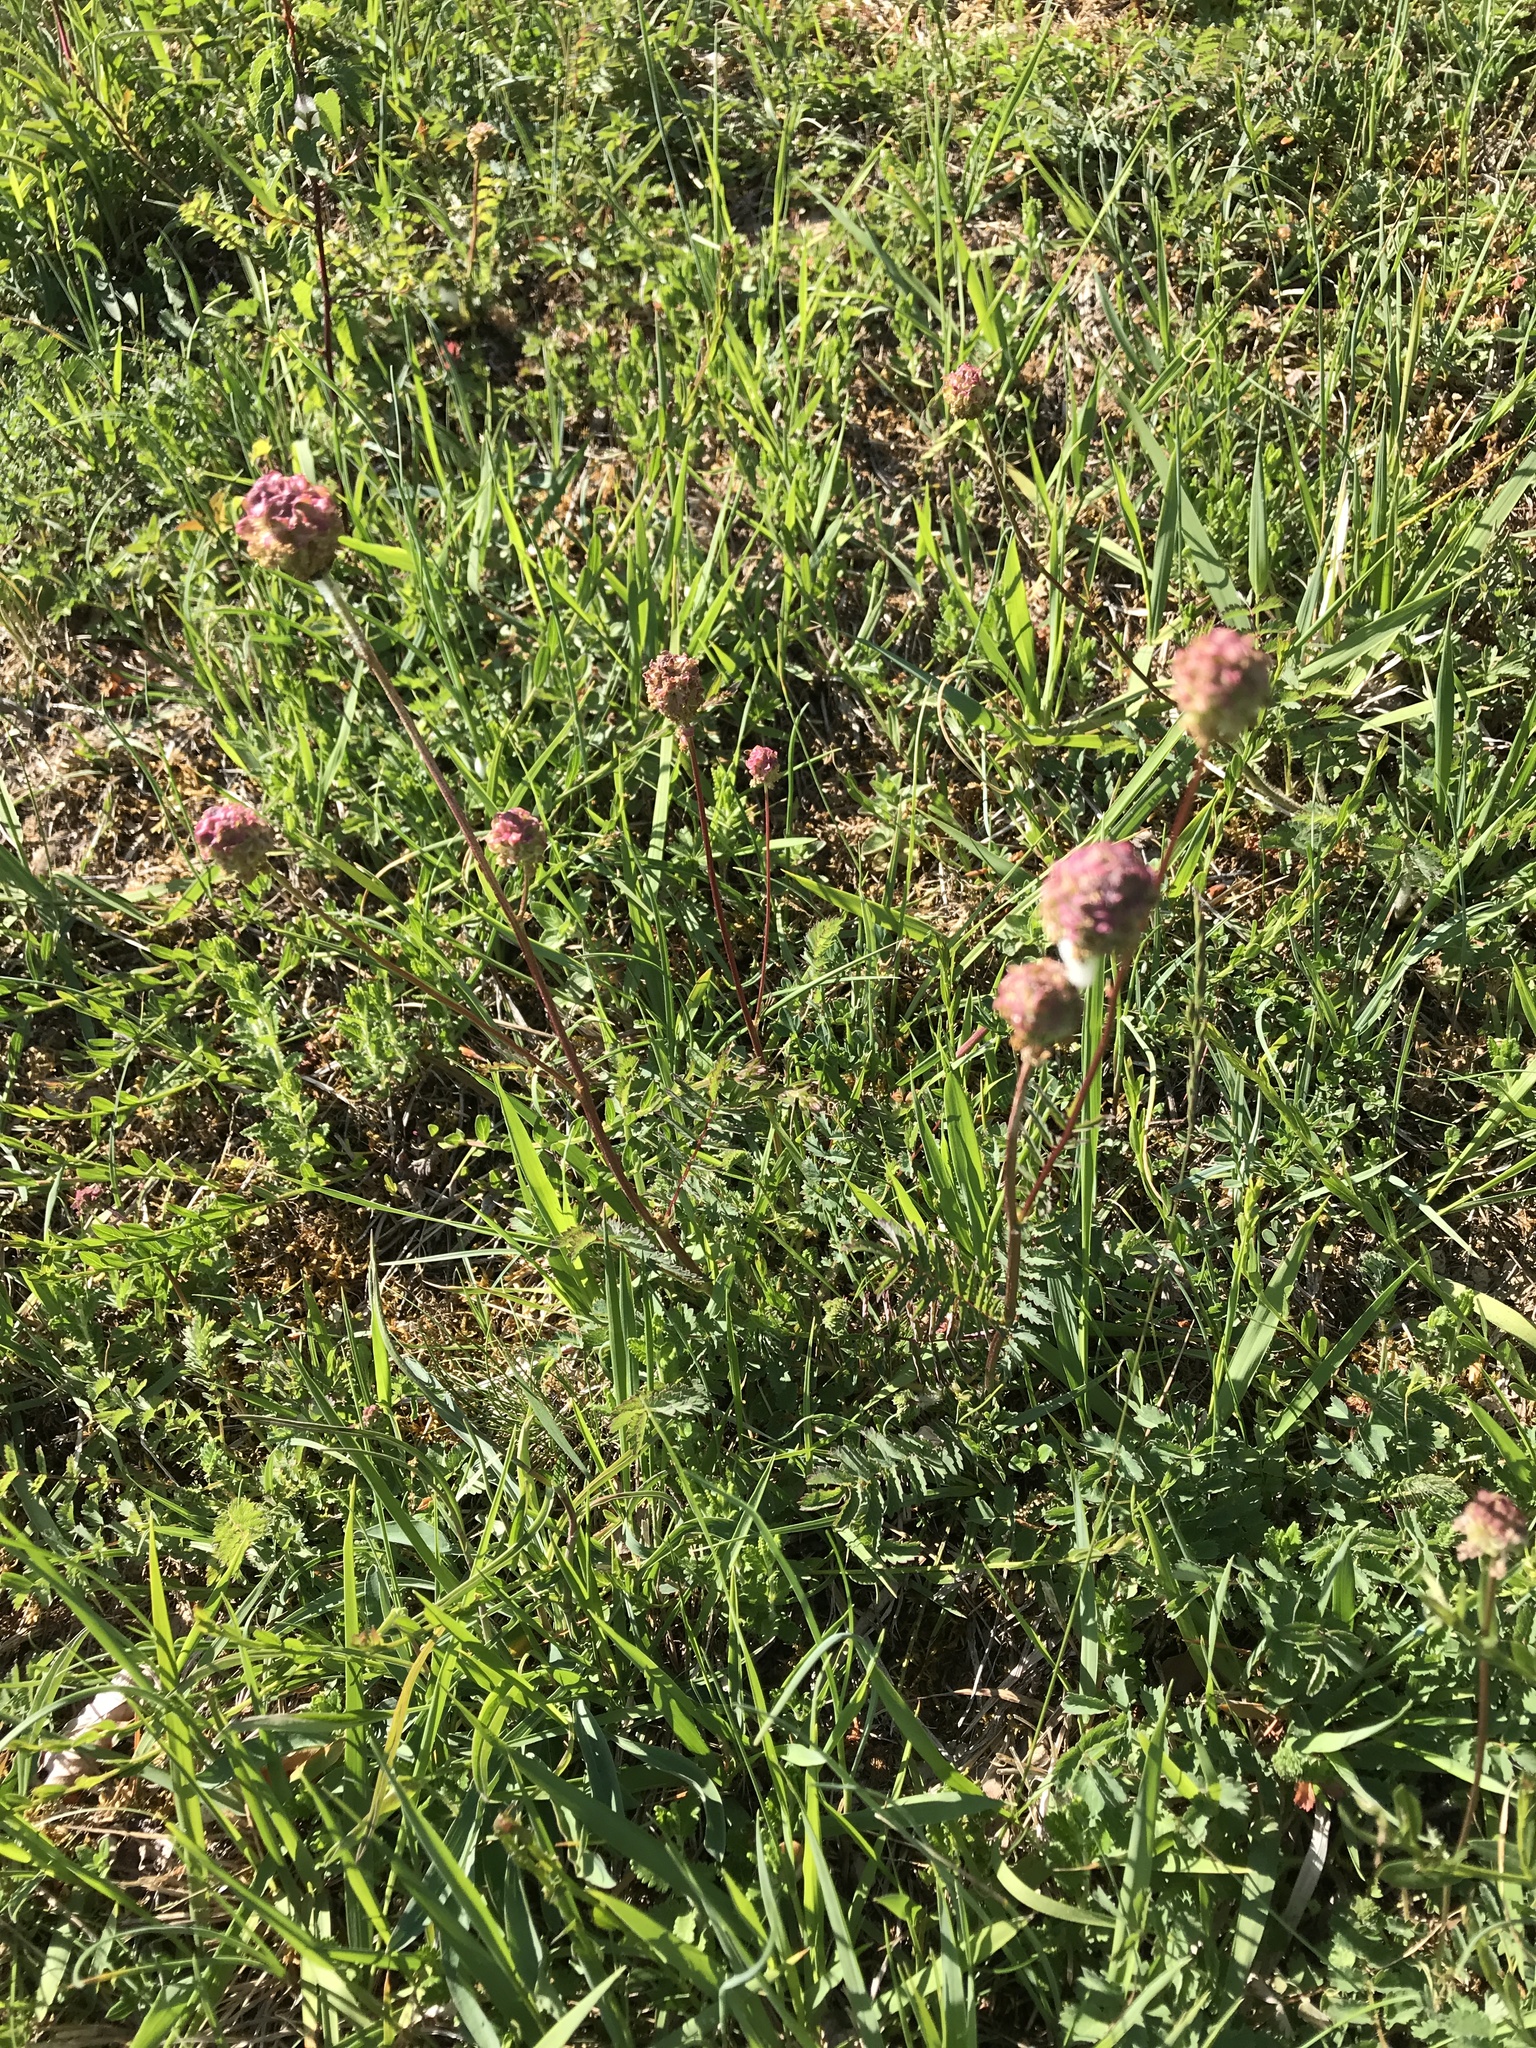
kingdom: Plantae
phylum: Tracheophyta
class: Magnoliopsida
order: Rosales
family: Rosaceae
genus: Poterium
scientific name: Poterium sanguisorba
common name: Salad burnet
